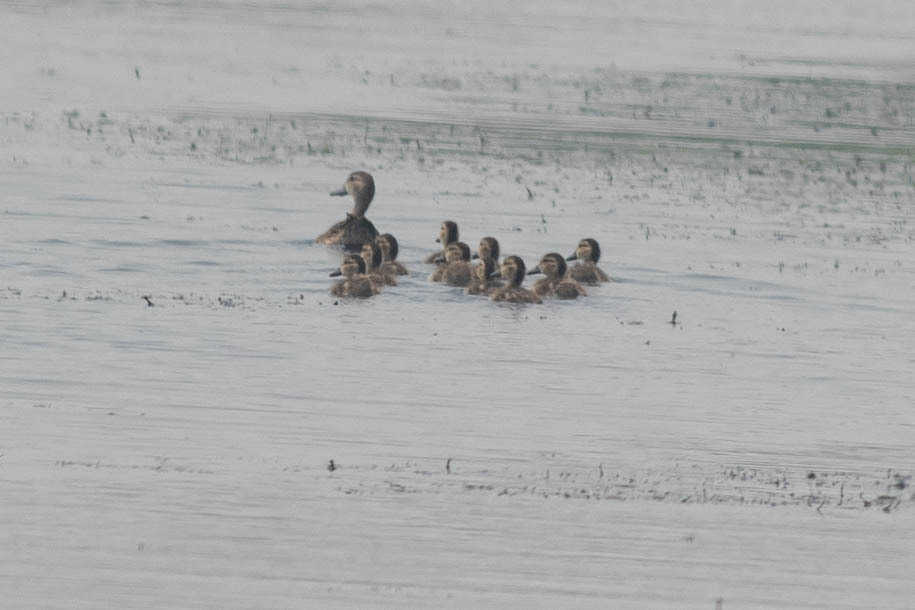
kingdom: Animalia
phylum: Chordata
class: Aves
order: Anseriformes
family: Anatidae
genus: Spatula
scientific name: Spatula discors
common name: Blue-winged teal
